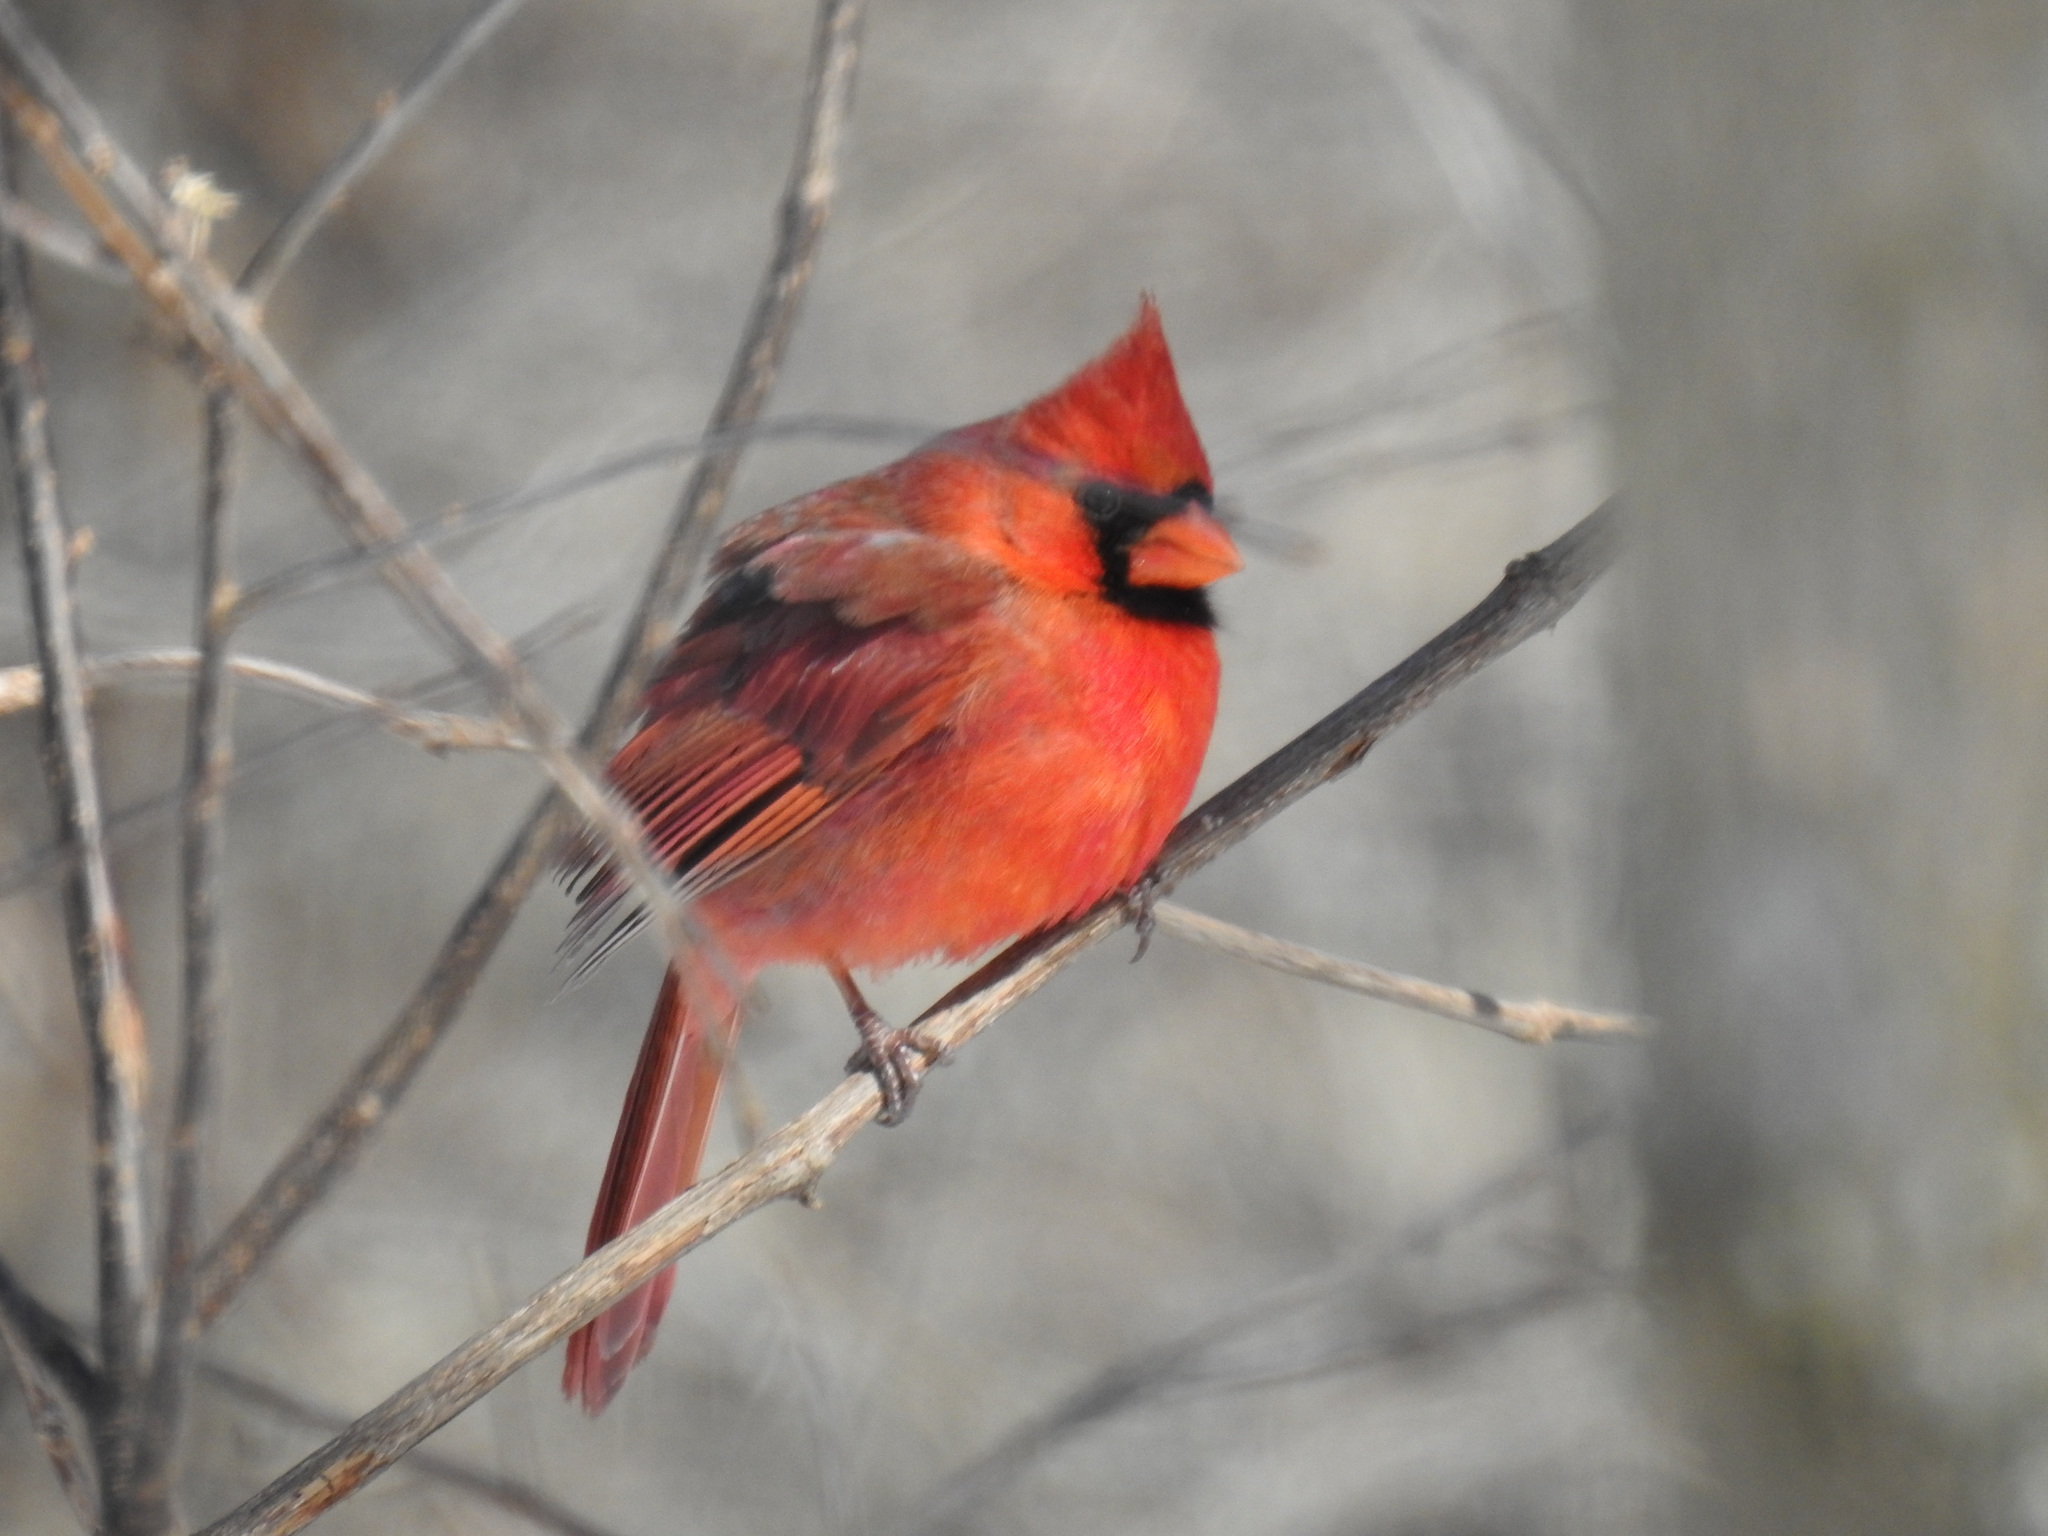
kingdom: Animalia
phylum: Chordata
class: Aves
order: Passeriformes
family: Cardinalidae
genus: Cardinalis
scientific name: Cardinalis cardinalis
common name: Northern cardinal
